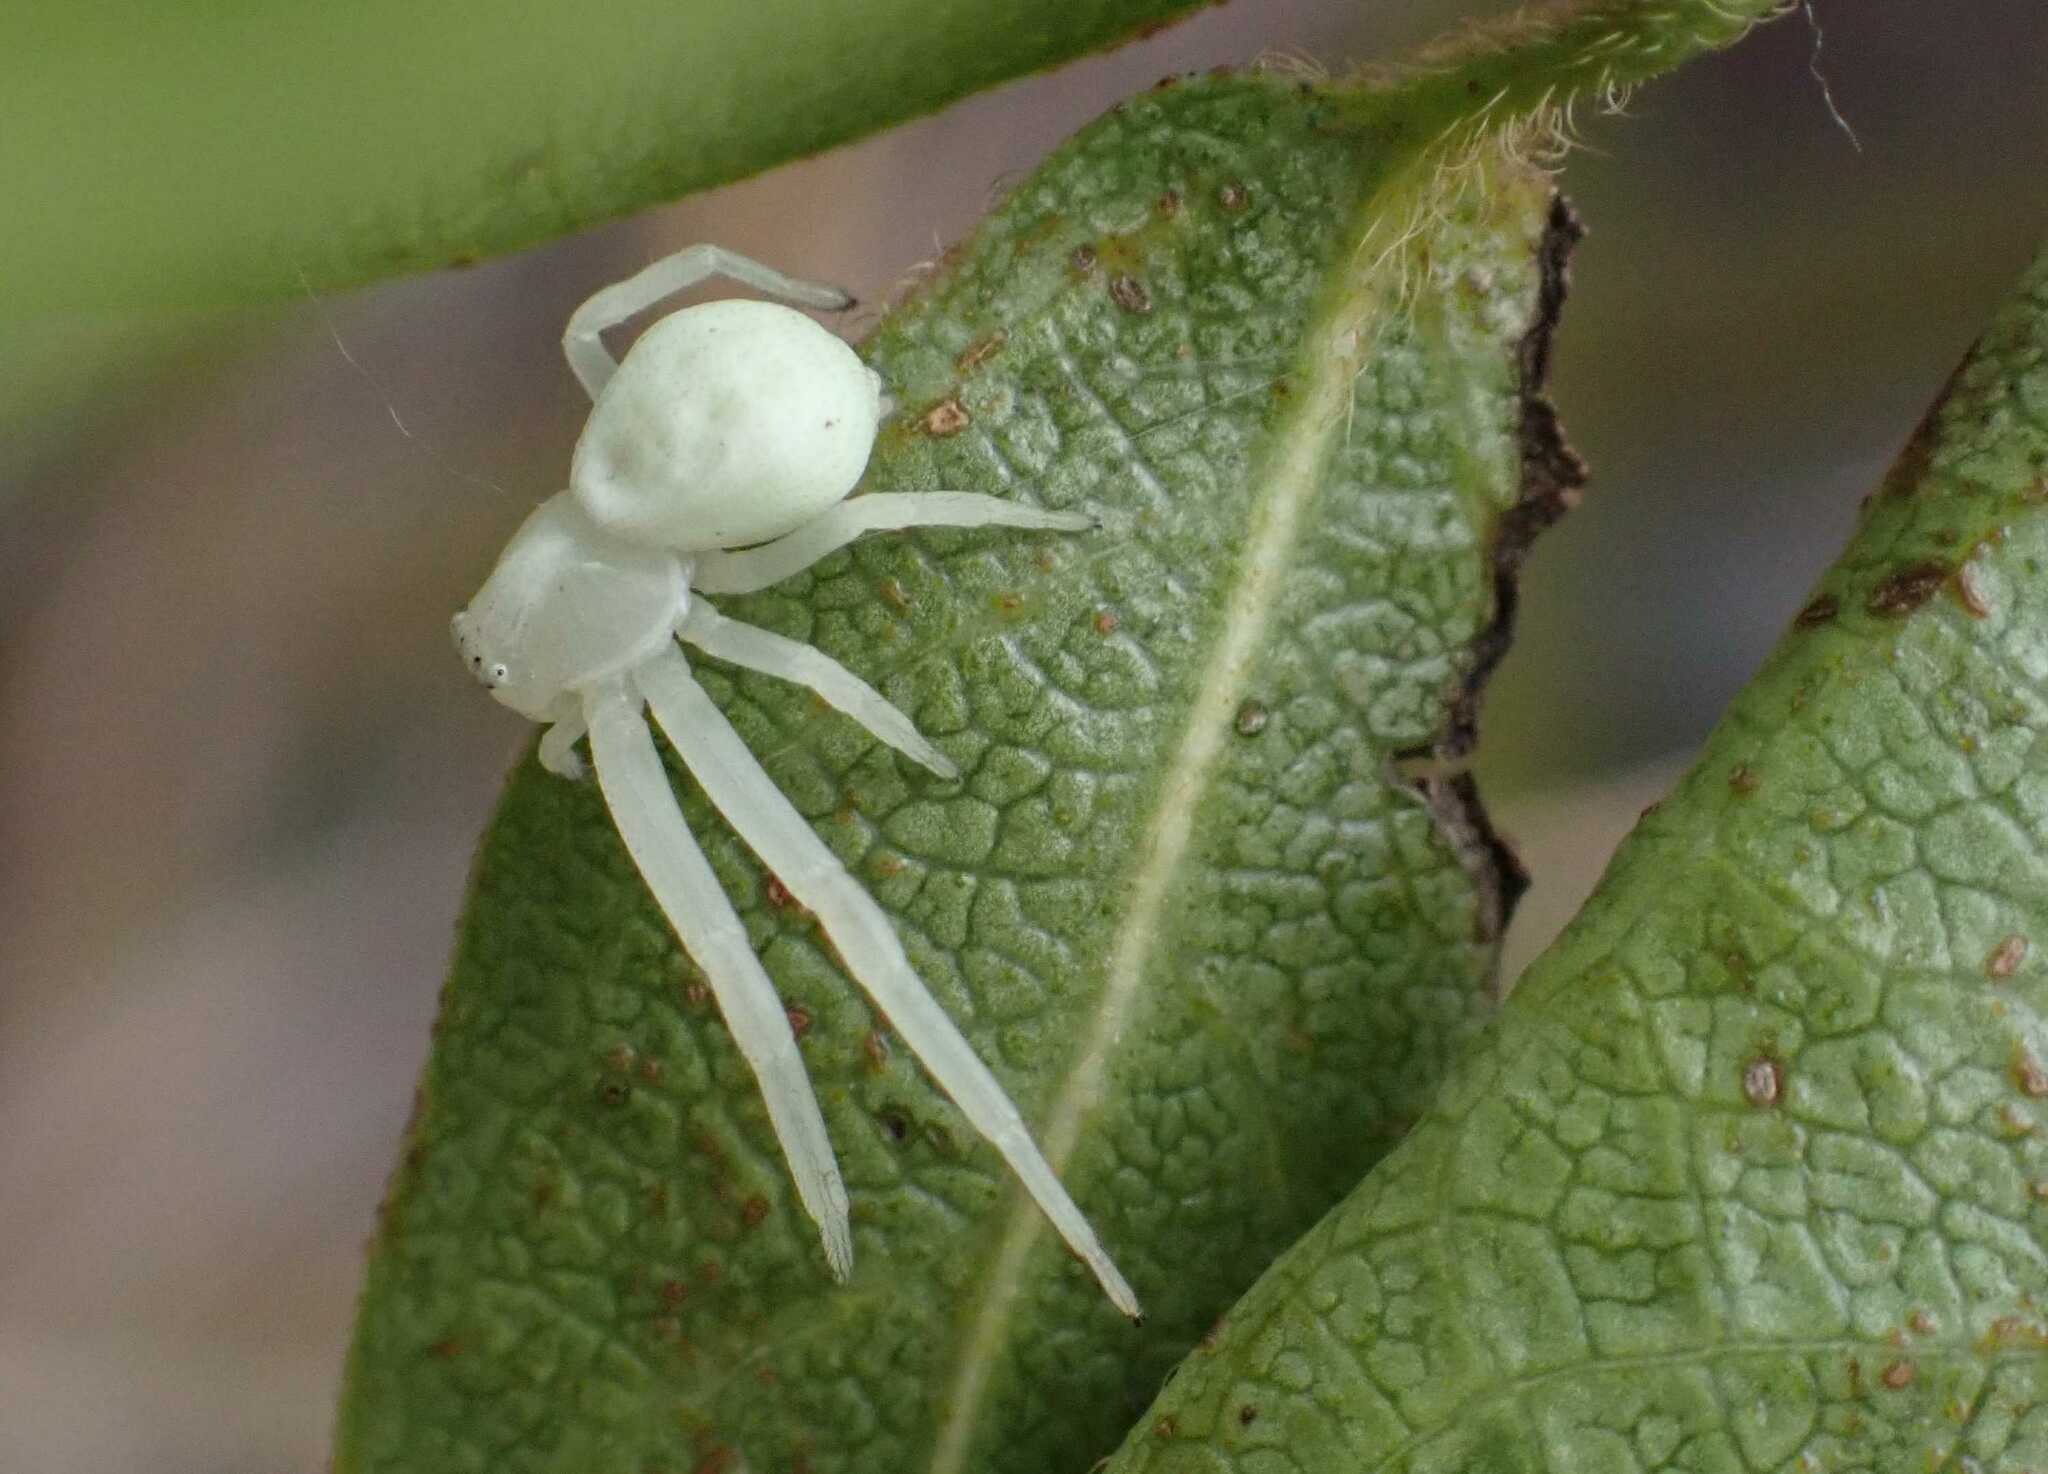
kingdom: Animalia
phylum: Arthropoda
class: Arachnida
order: Araneae
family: Thomisidae
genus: Misumena
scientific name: Misumena vatia
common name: Goldenrod crab spider
